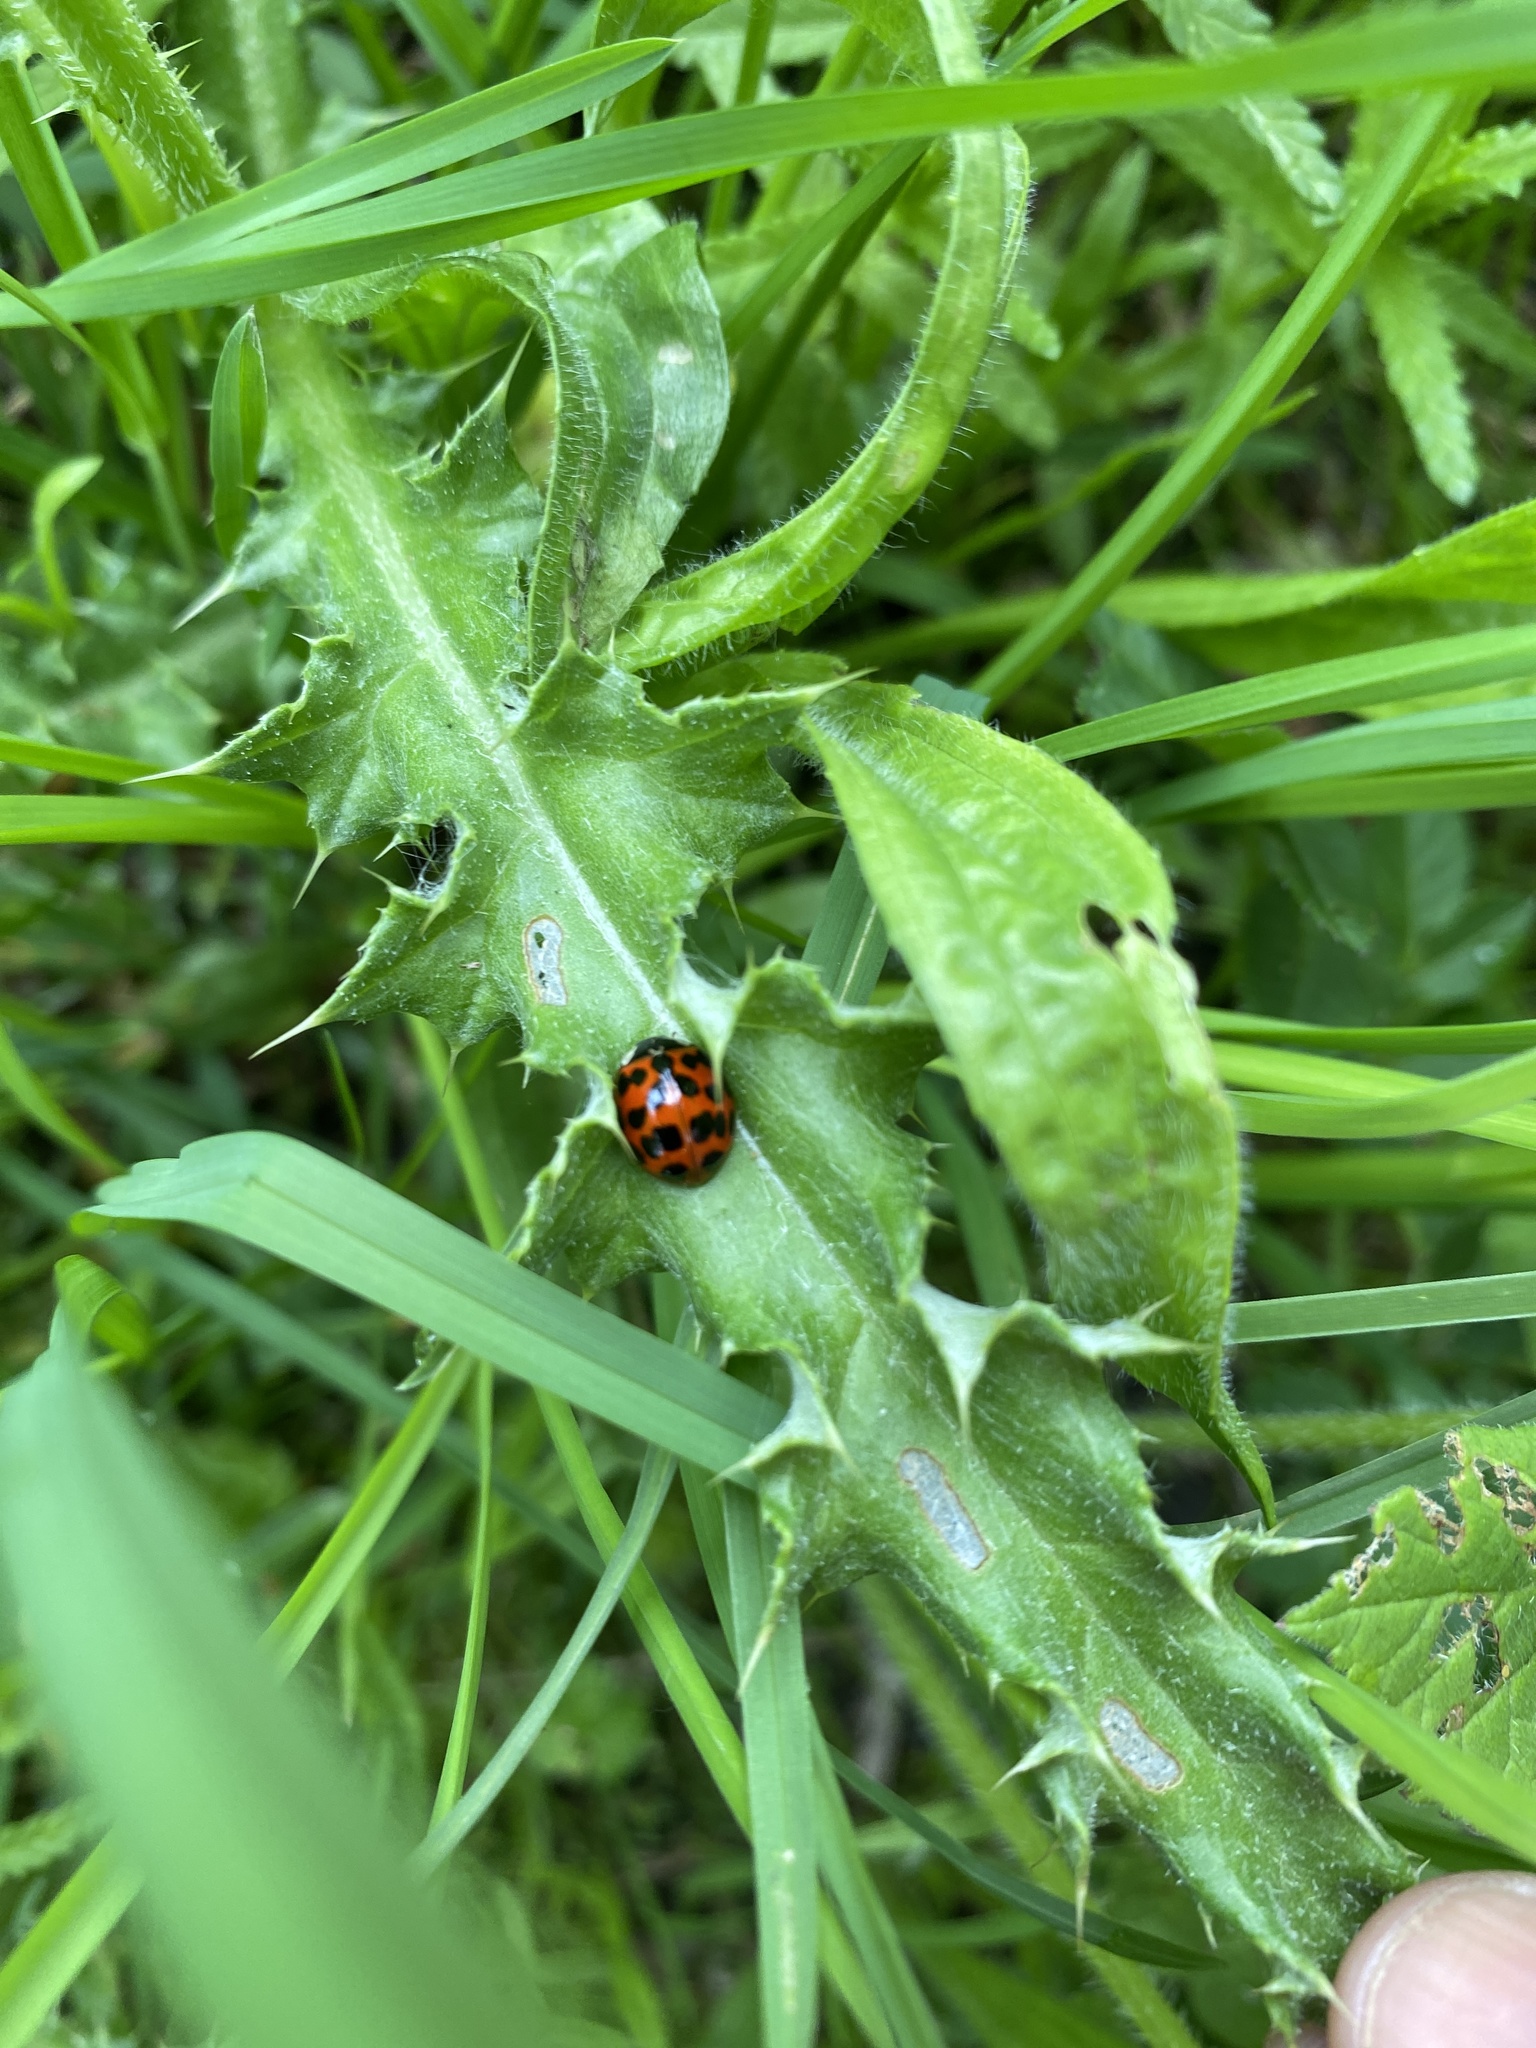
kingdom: Animalia
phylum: Arthropoda
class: Insecta
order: Coleoptera
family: Coccinellidae
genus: Harmonia
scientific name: Harmonia axyridis
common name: Harlequin ladybird
